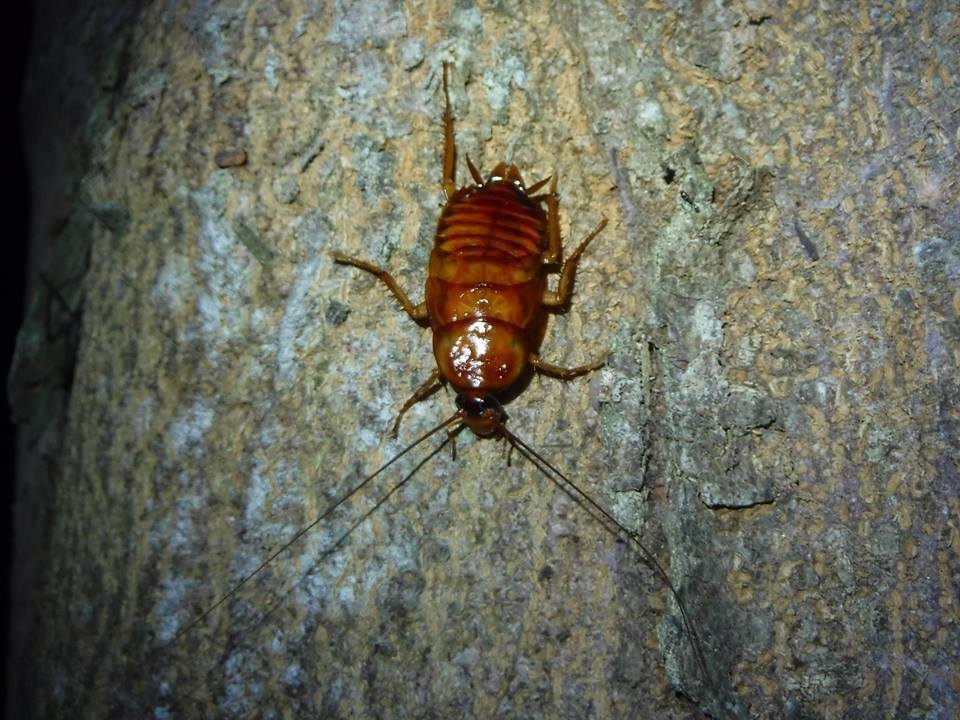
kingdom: Animalia
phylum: Arthropoda
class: Insecta
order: Blattodea
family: Blattidae
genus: Periplaneta
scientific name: Periplaneta americana
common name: American cockroach
